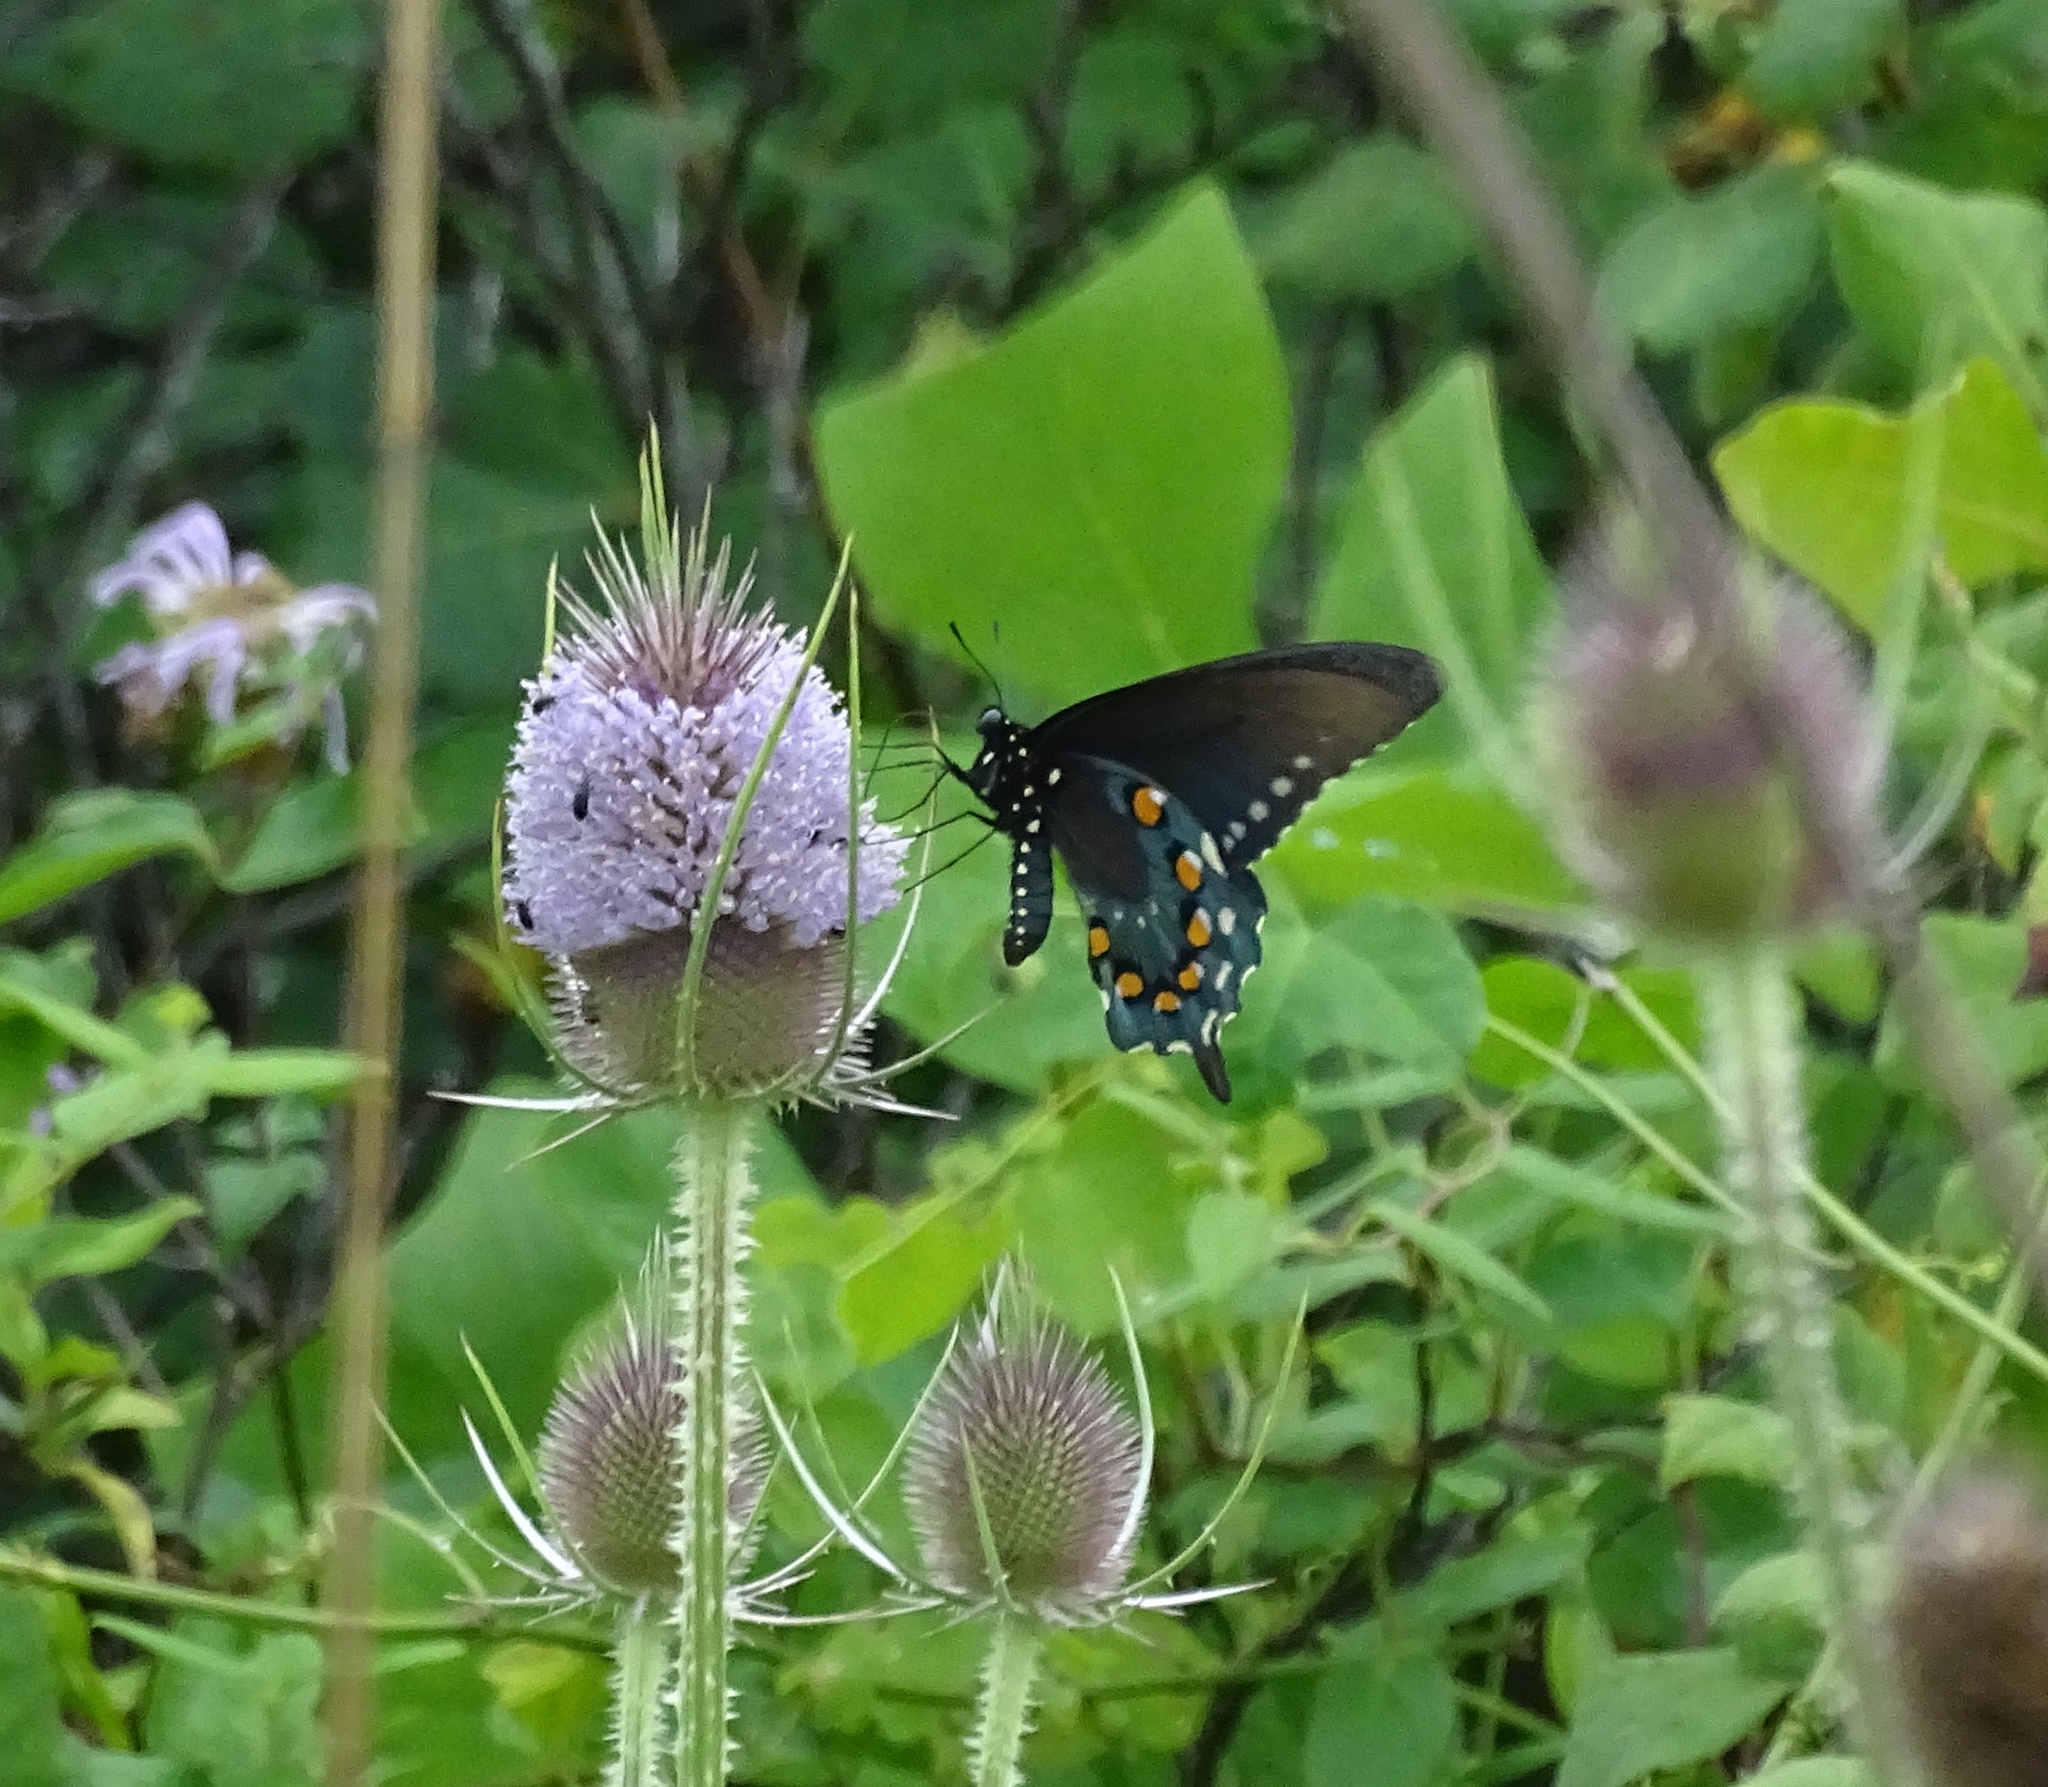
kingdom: Animalia
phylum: Arthropoda
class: Insecta
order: Lepidoptera
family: Papilionidae
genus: Battus
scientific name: Battus philenor
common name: Pipevine swallowtail
